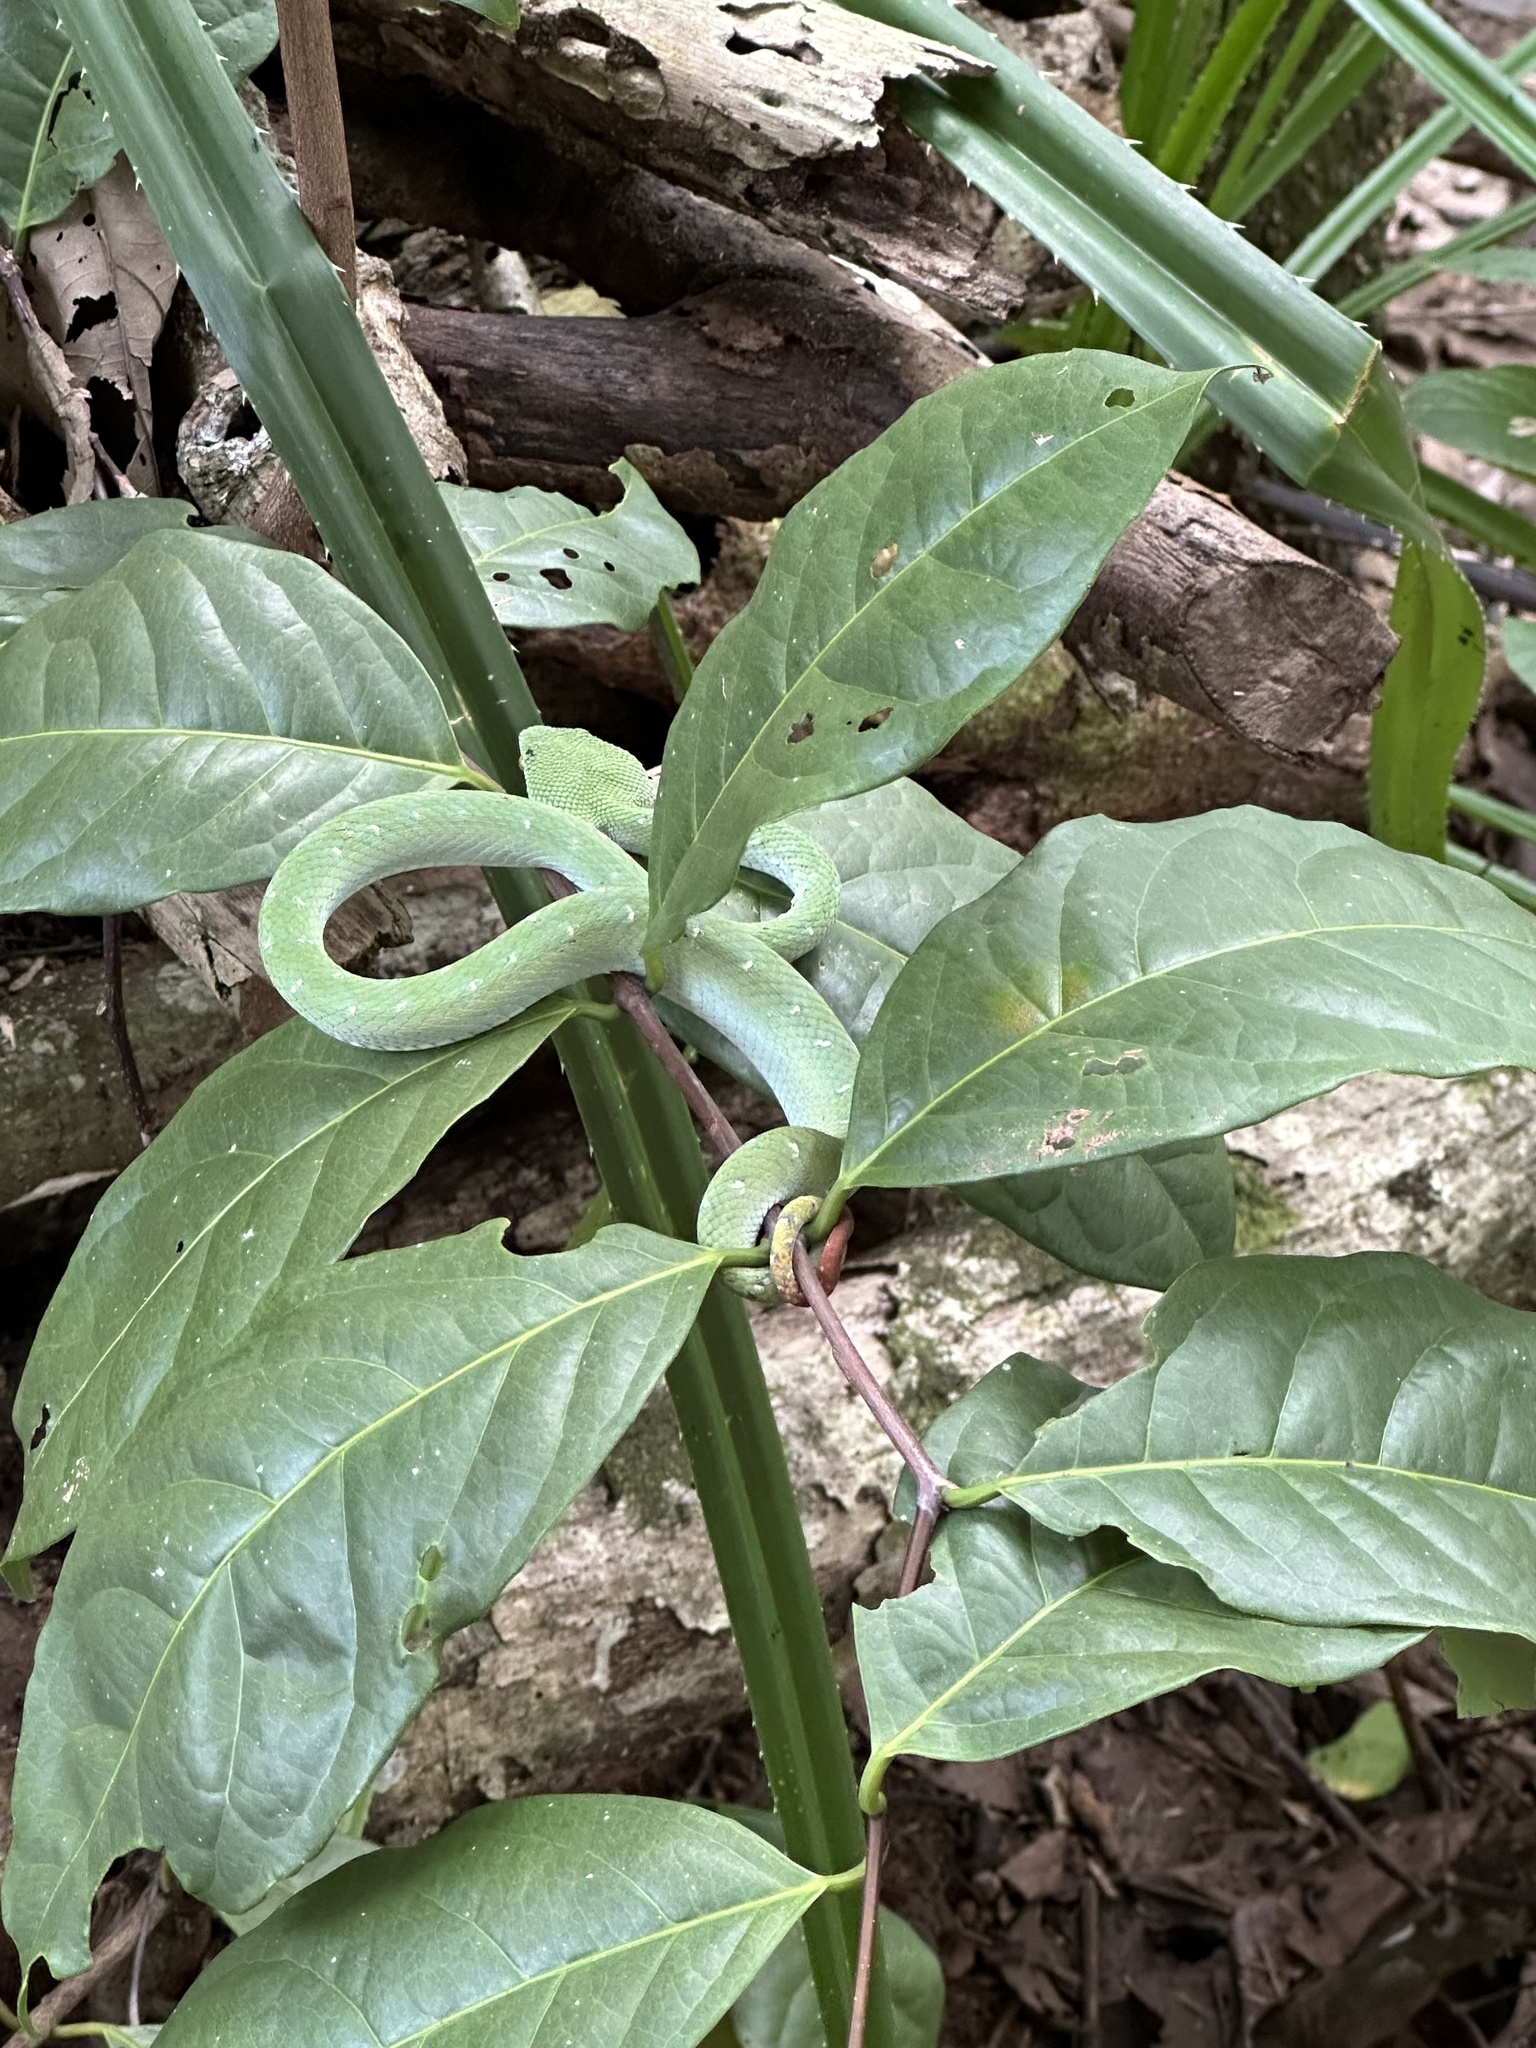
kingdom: Animalia
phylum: Chordata
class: Squamata
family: Viperidae
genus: Tropidolaemus
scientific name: Tropidolaemus subannulatus
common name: North philippine temple pitviper
